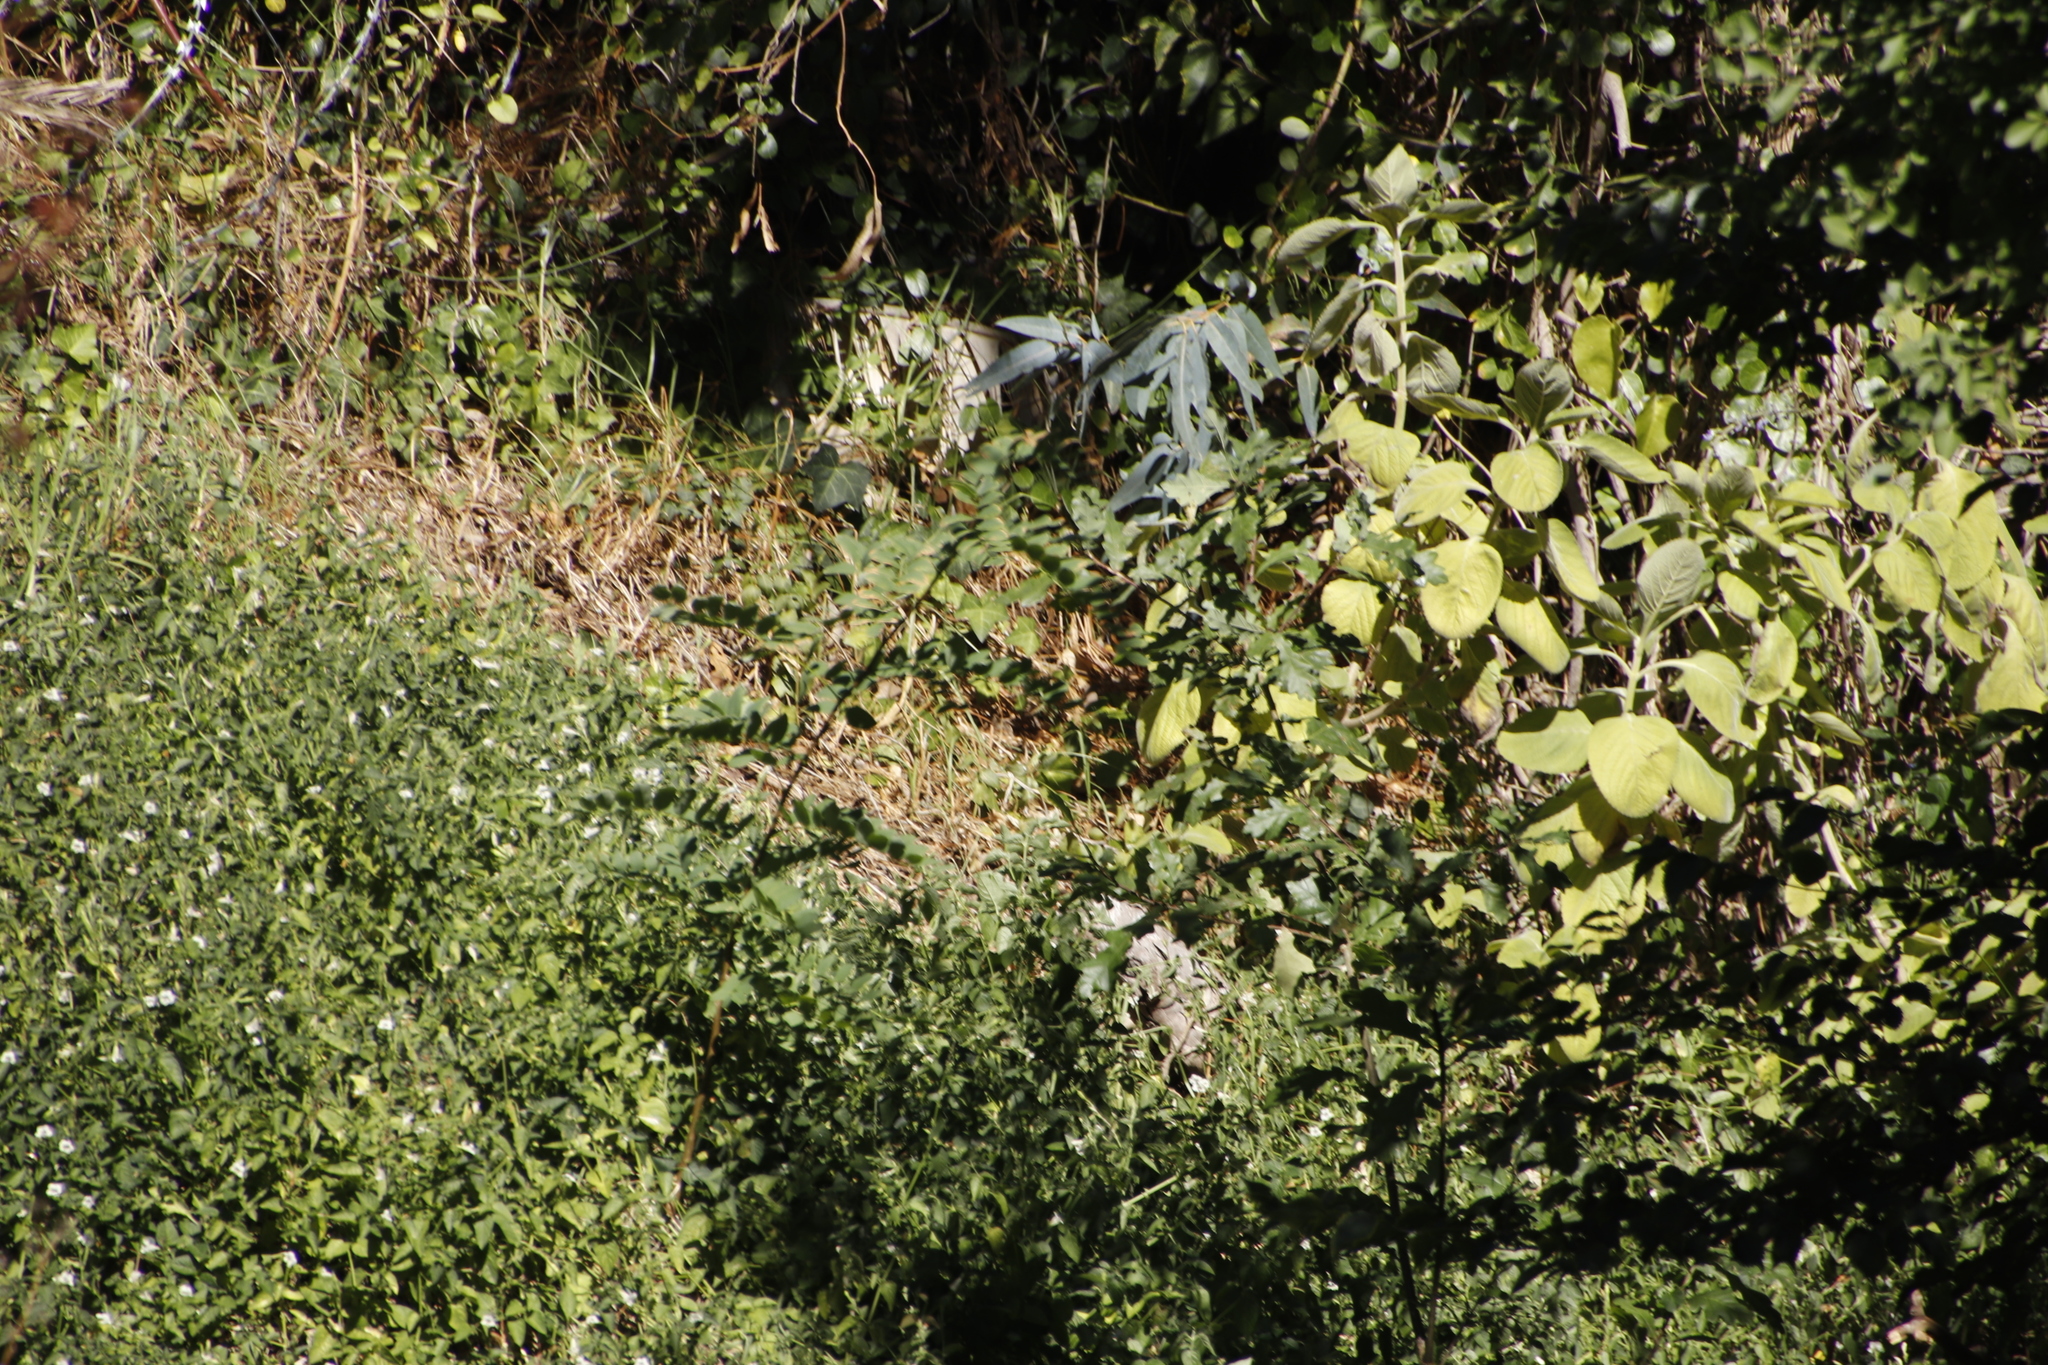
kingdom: Plantae
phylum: Tracheophyta
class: Magnoliopsida
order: Fabales
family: Fabaceae
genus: Robinia
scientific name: Robinia pseudoacacia
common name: Black locust
